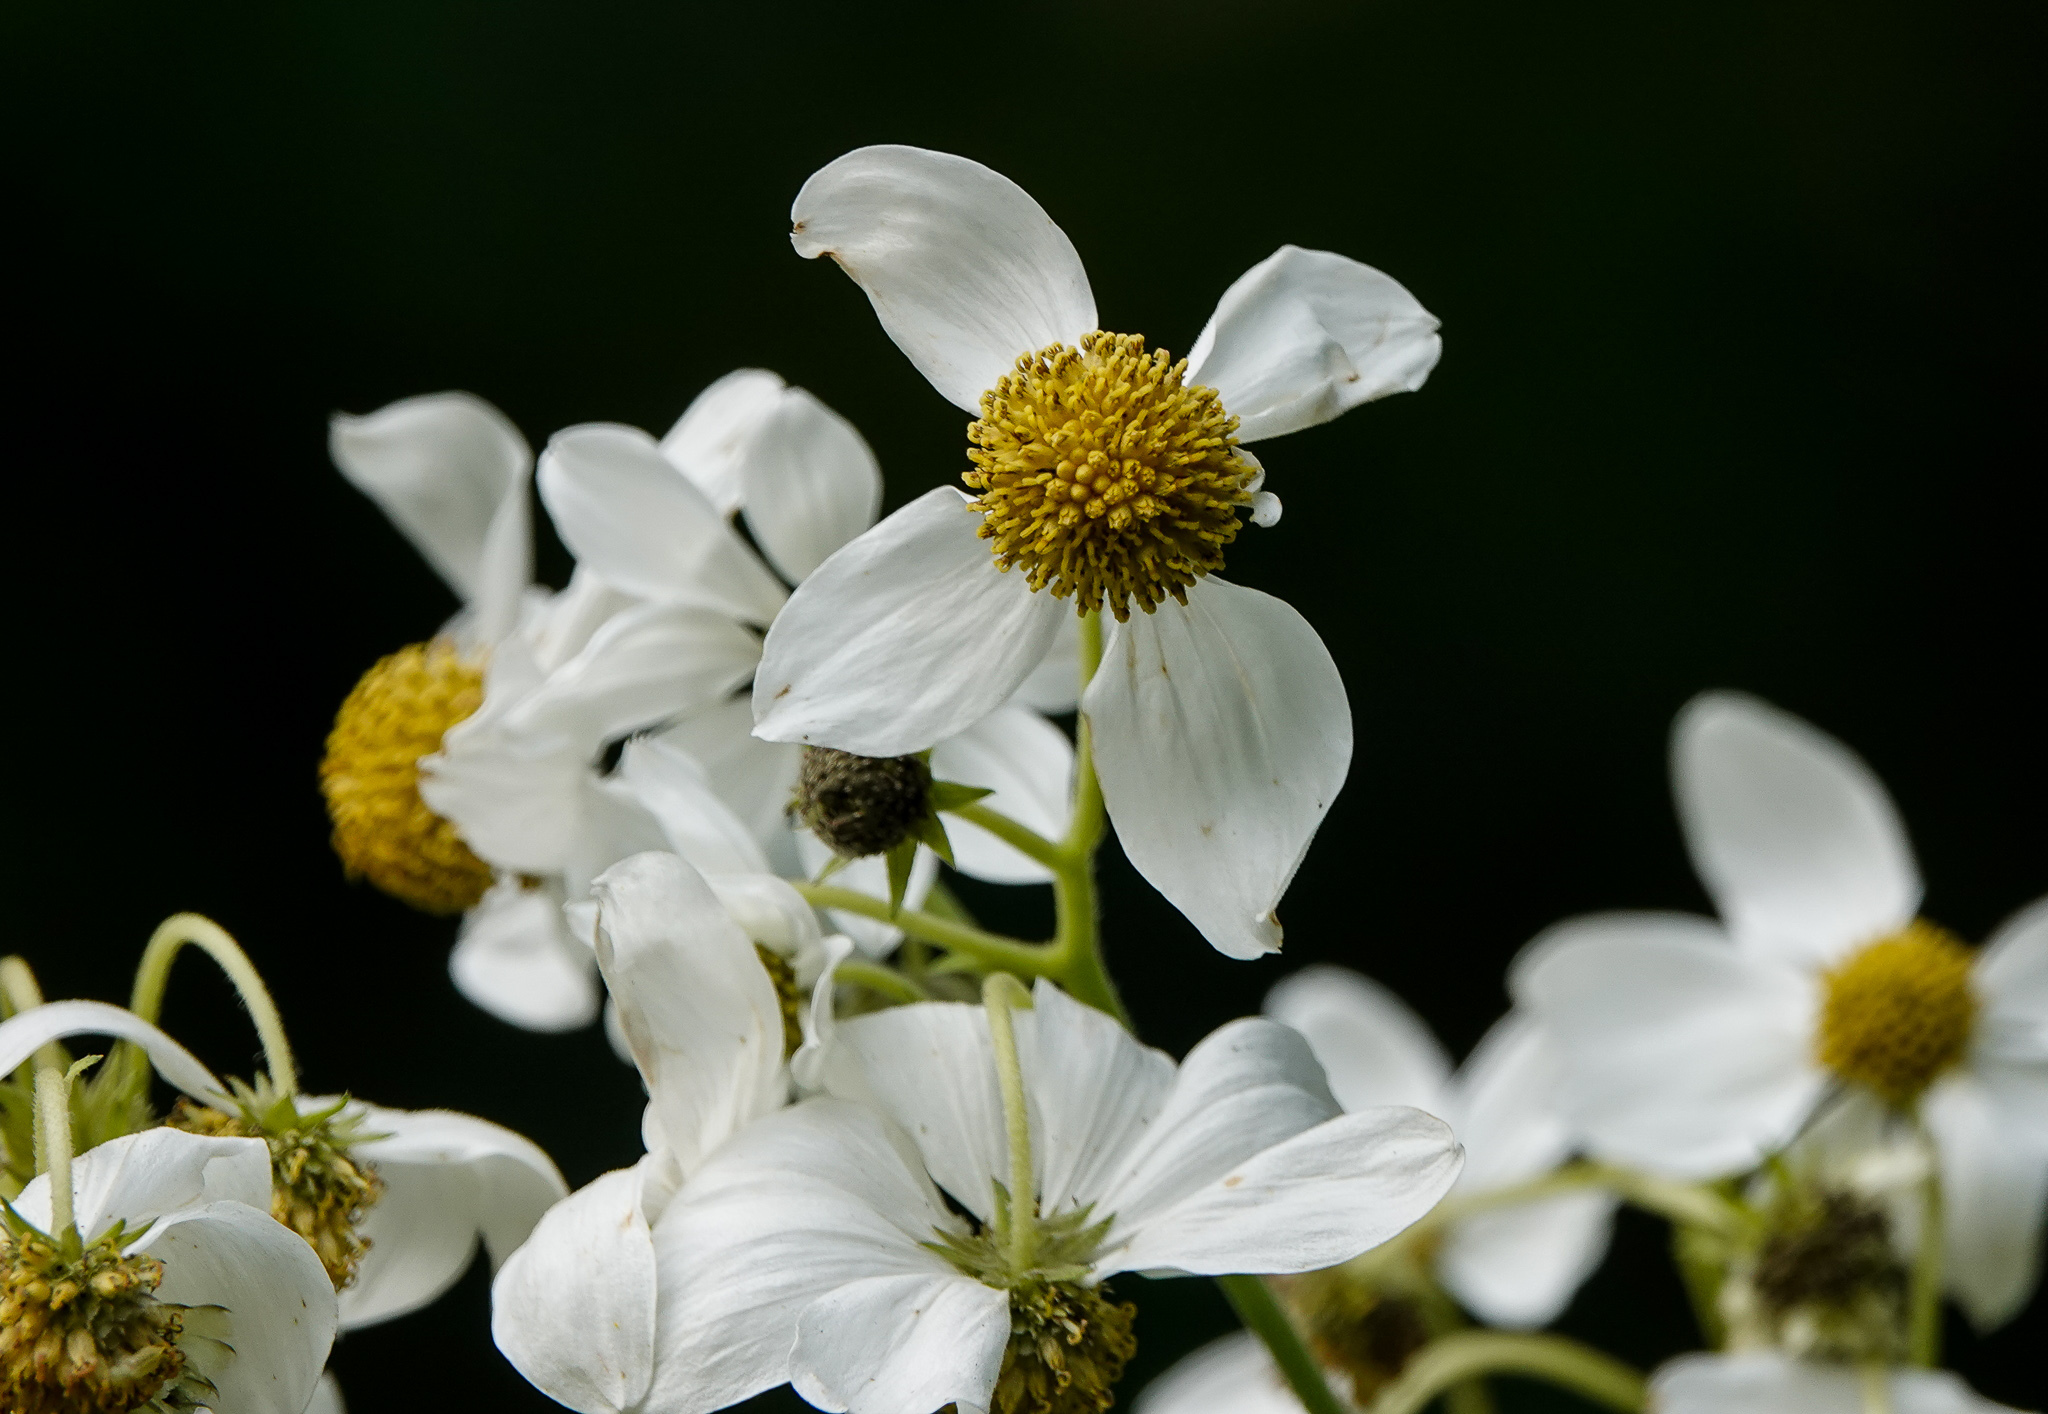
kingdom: Plantae
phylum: Tracheophyta
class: Magnoliopsida
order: Asterales
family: Asteraceae
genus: Montanoa
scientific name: Montanoa grandiflora
